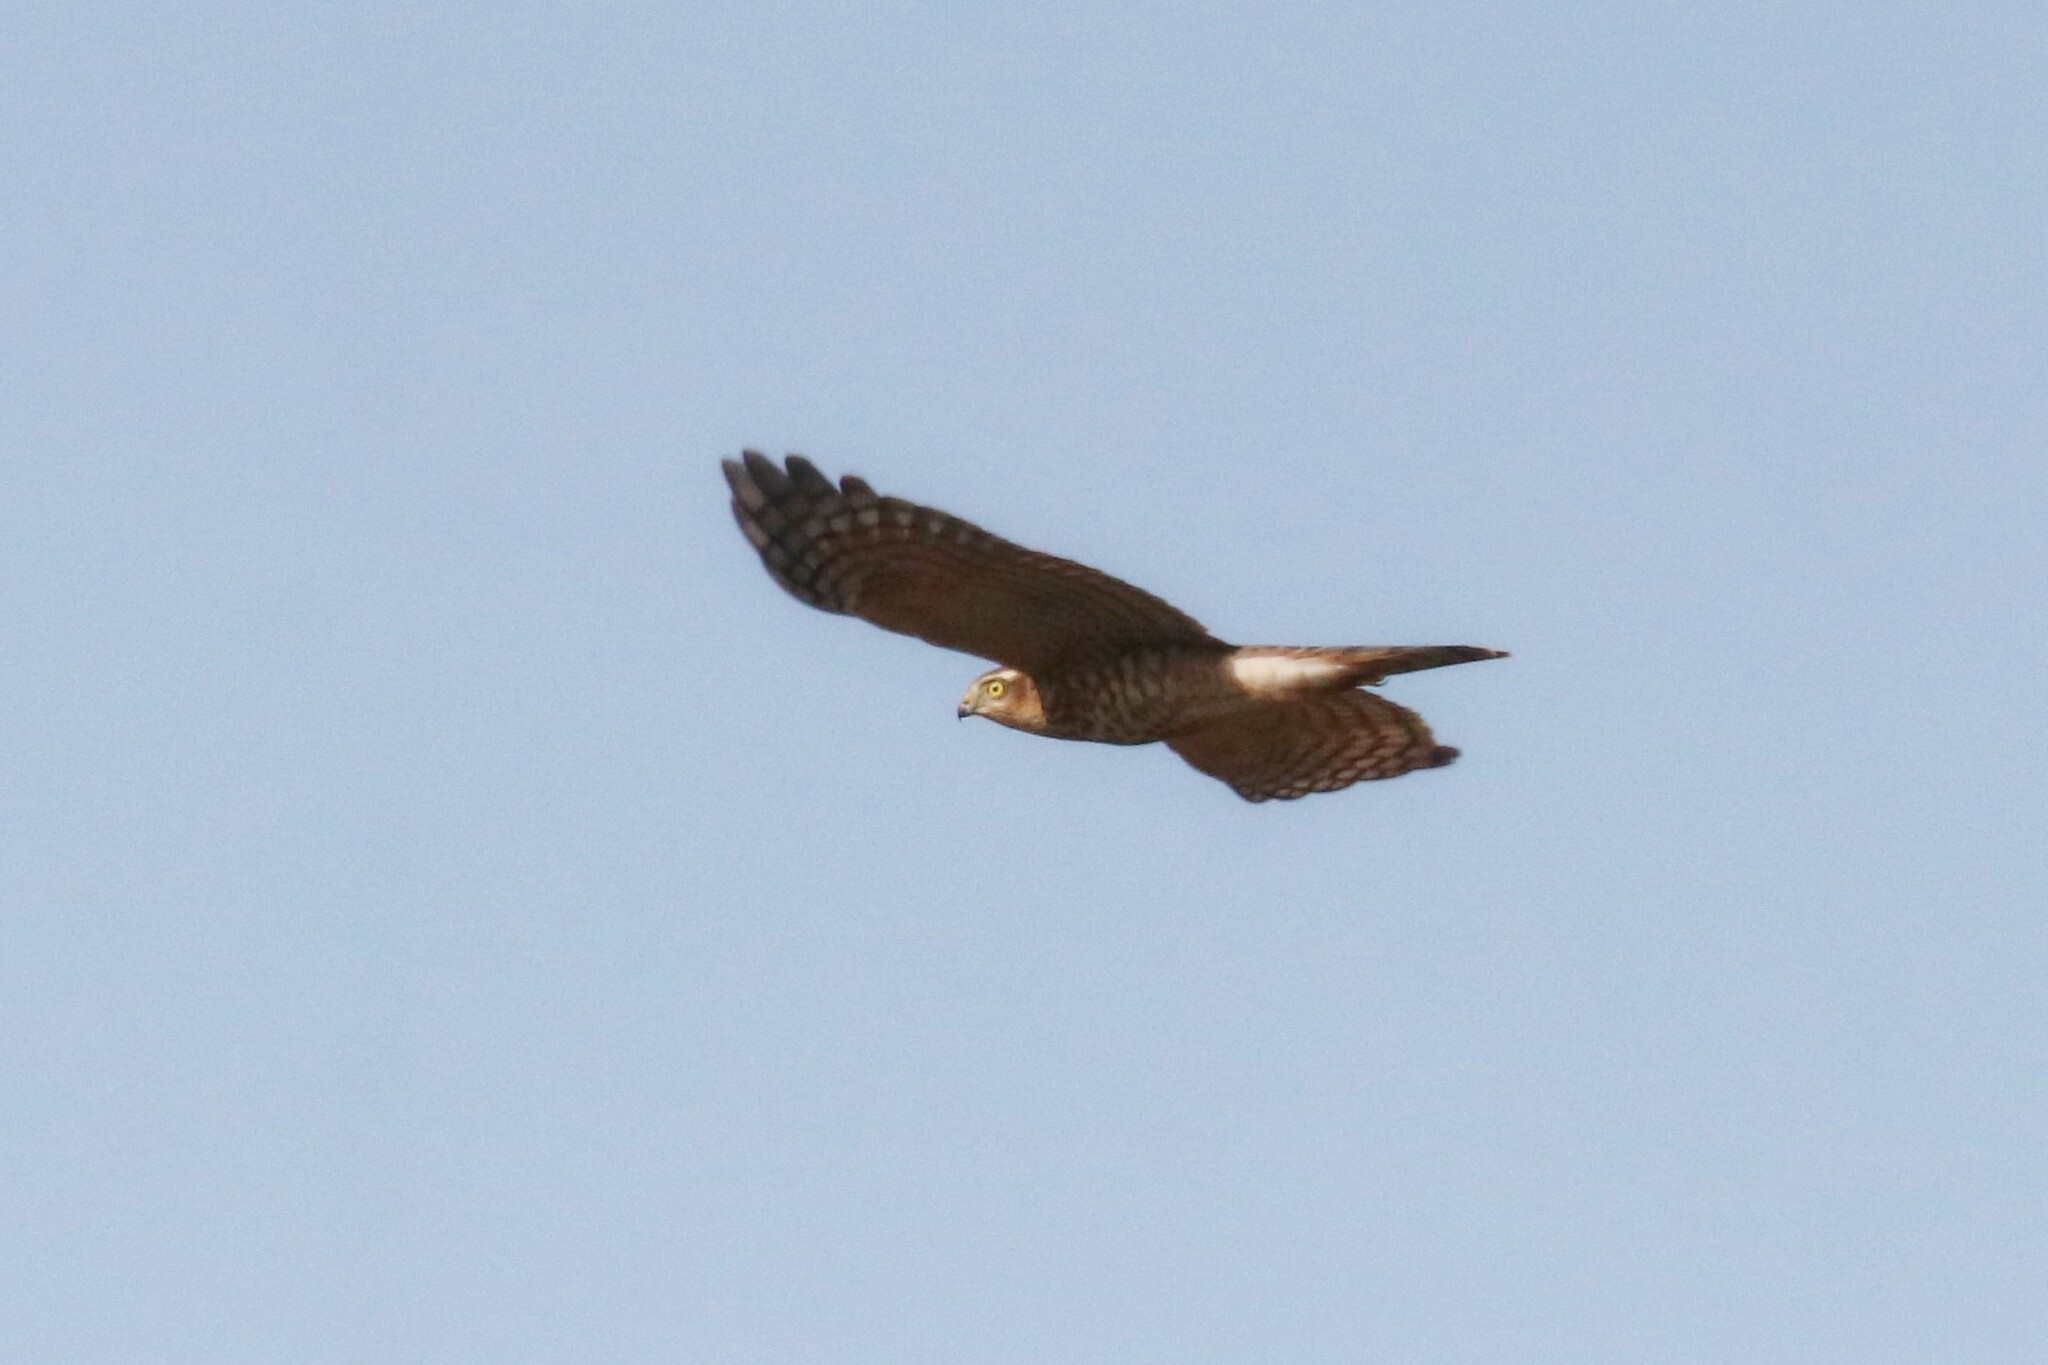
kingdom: Animalia
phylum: Chordata
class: Aves
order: Accipitriformes
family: Accipitridae
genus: Accipiter
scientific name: Accipiter nisus
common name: Eurasian sparrowhawk
